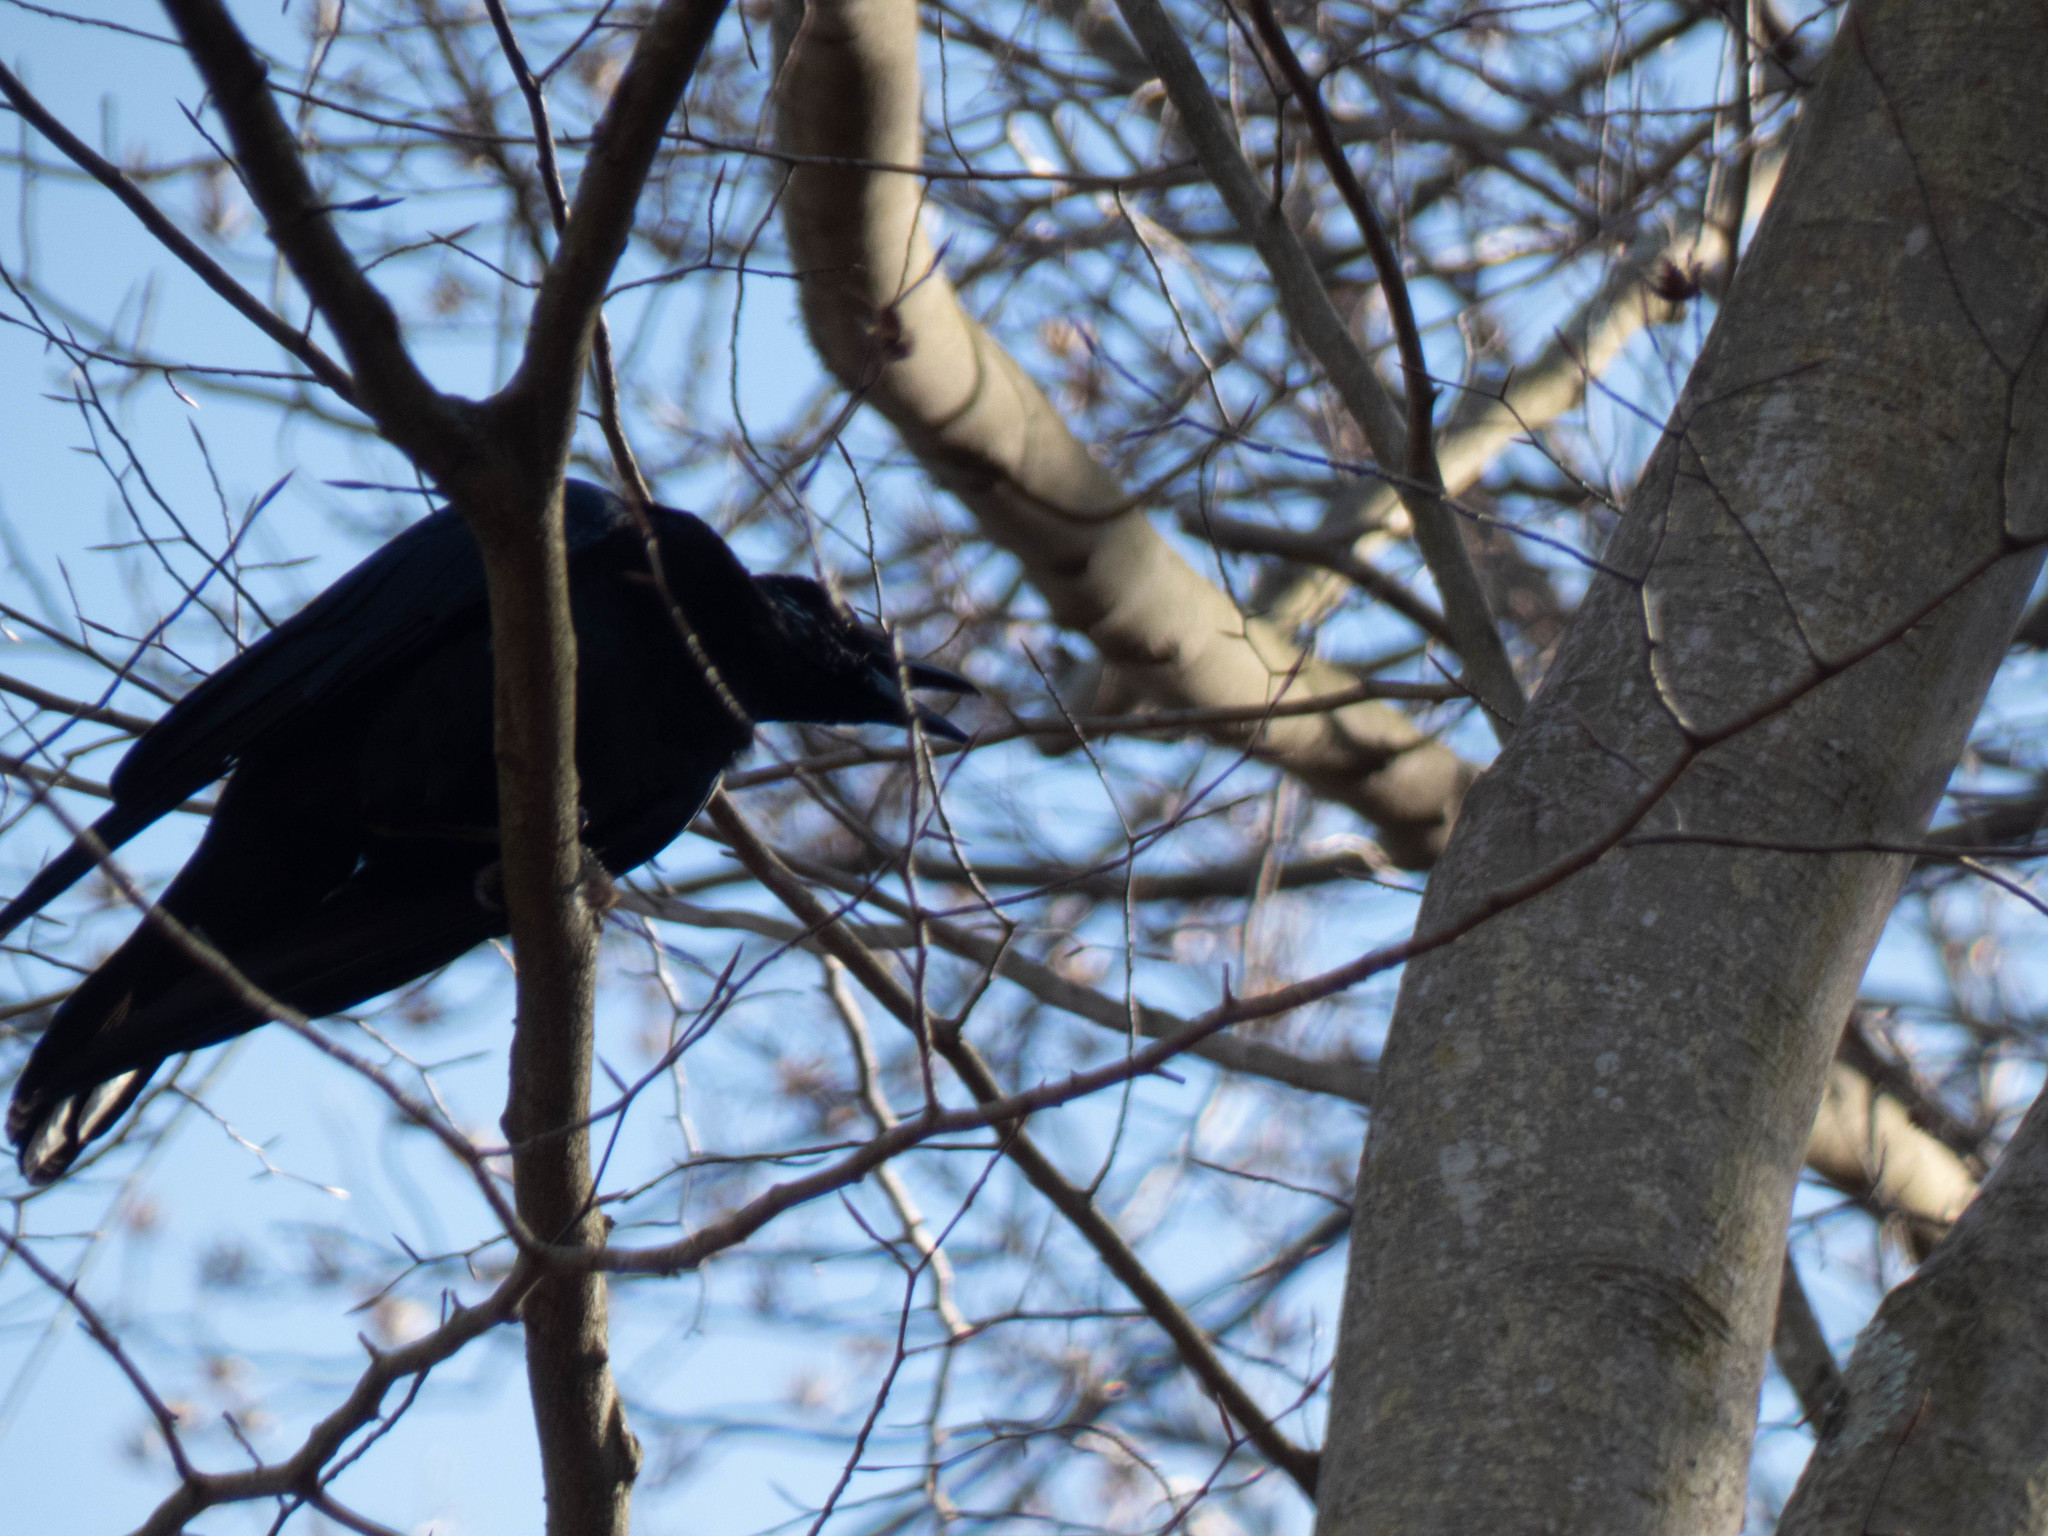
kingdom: Animalia
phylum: Chordata
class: Aves
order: Passeriformes
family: Corvidae
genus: Corvus
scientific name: Corvus brachyrhynchos
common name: American crow
